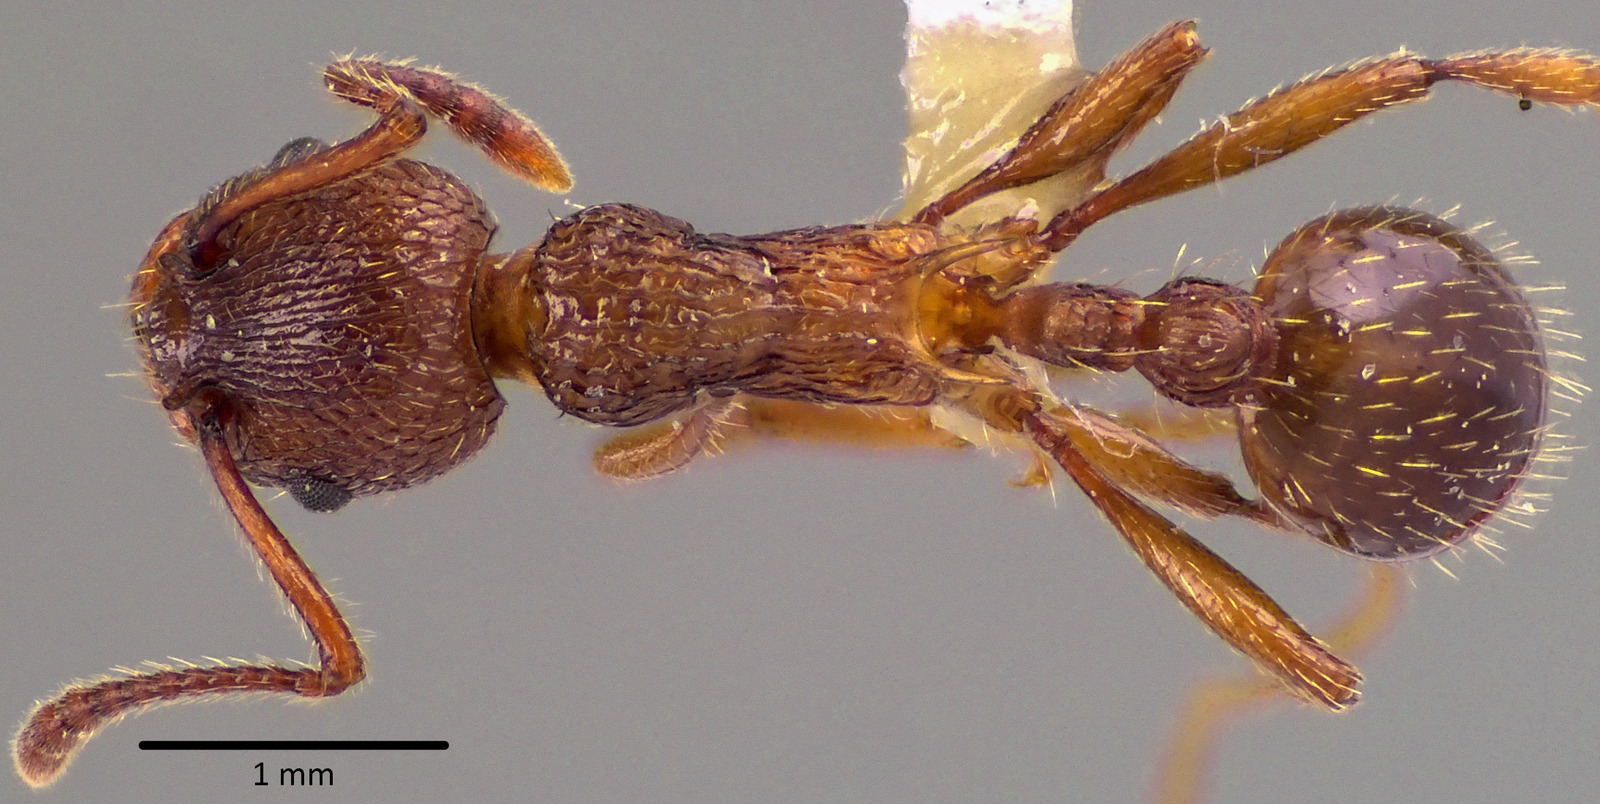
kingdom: Animalia
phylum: Arthropoda
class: Insecta
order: Hymenoptera
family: Formicidae
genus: Myrmica
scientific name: Myrmica americana
